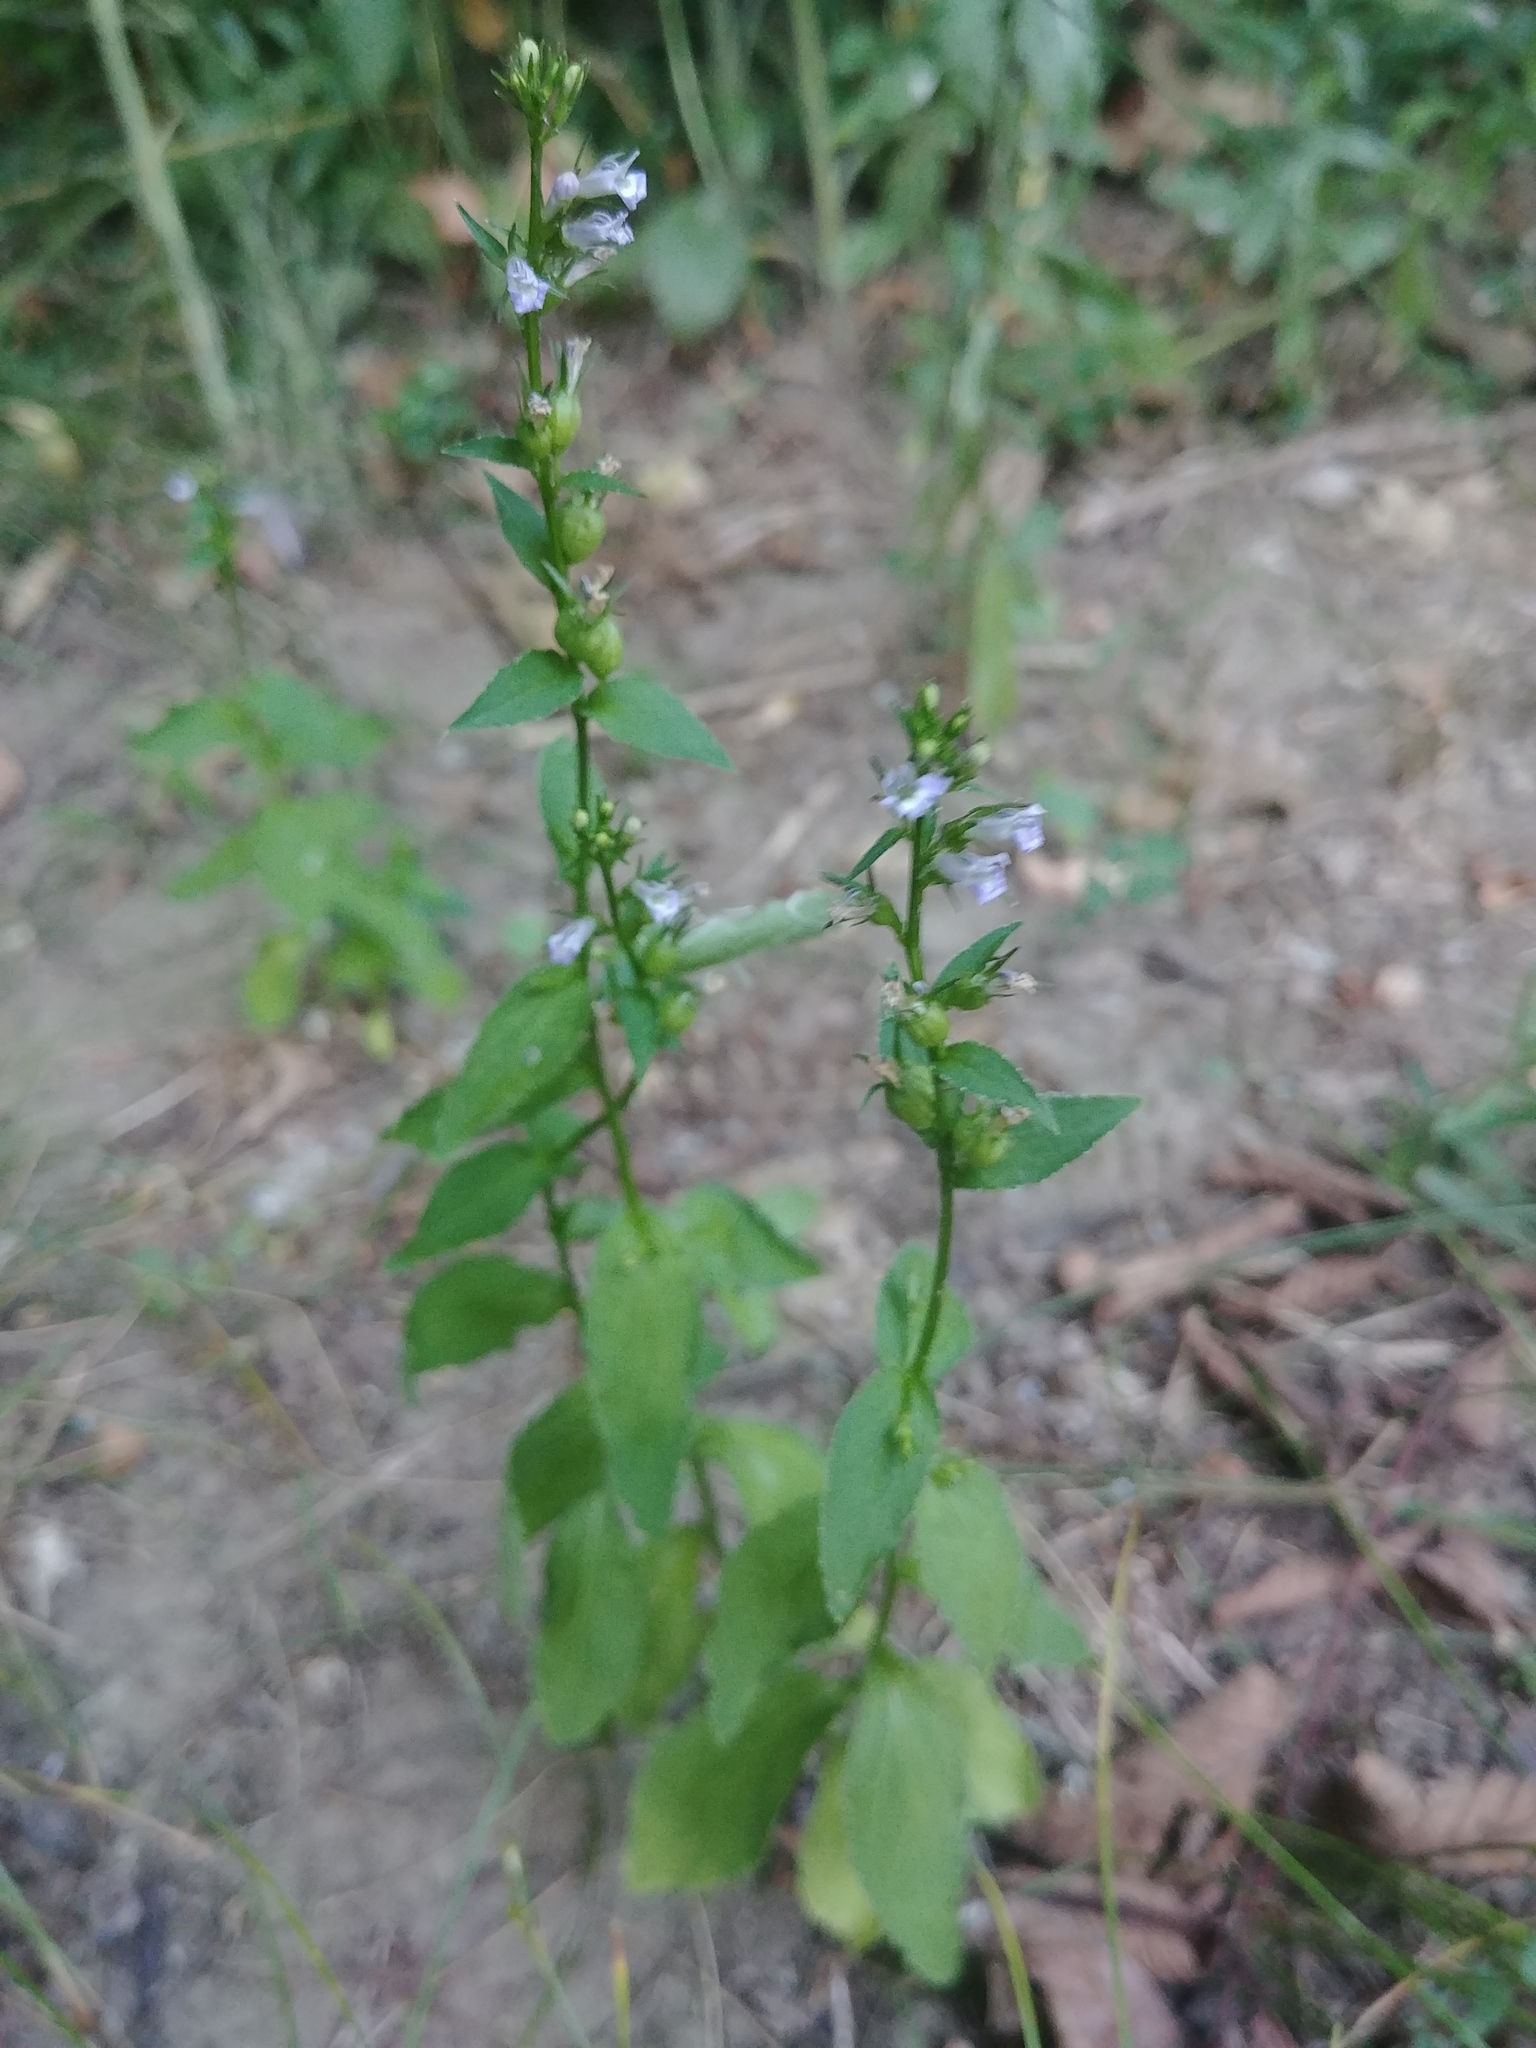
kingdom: Plantae
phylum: Tracheophyta
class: Magnoliopsida
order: Asterales
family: Campanulaceae
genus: Lobelia
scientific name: Lobelia inflata
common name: Indian tobacco
